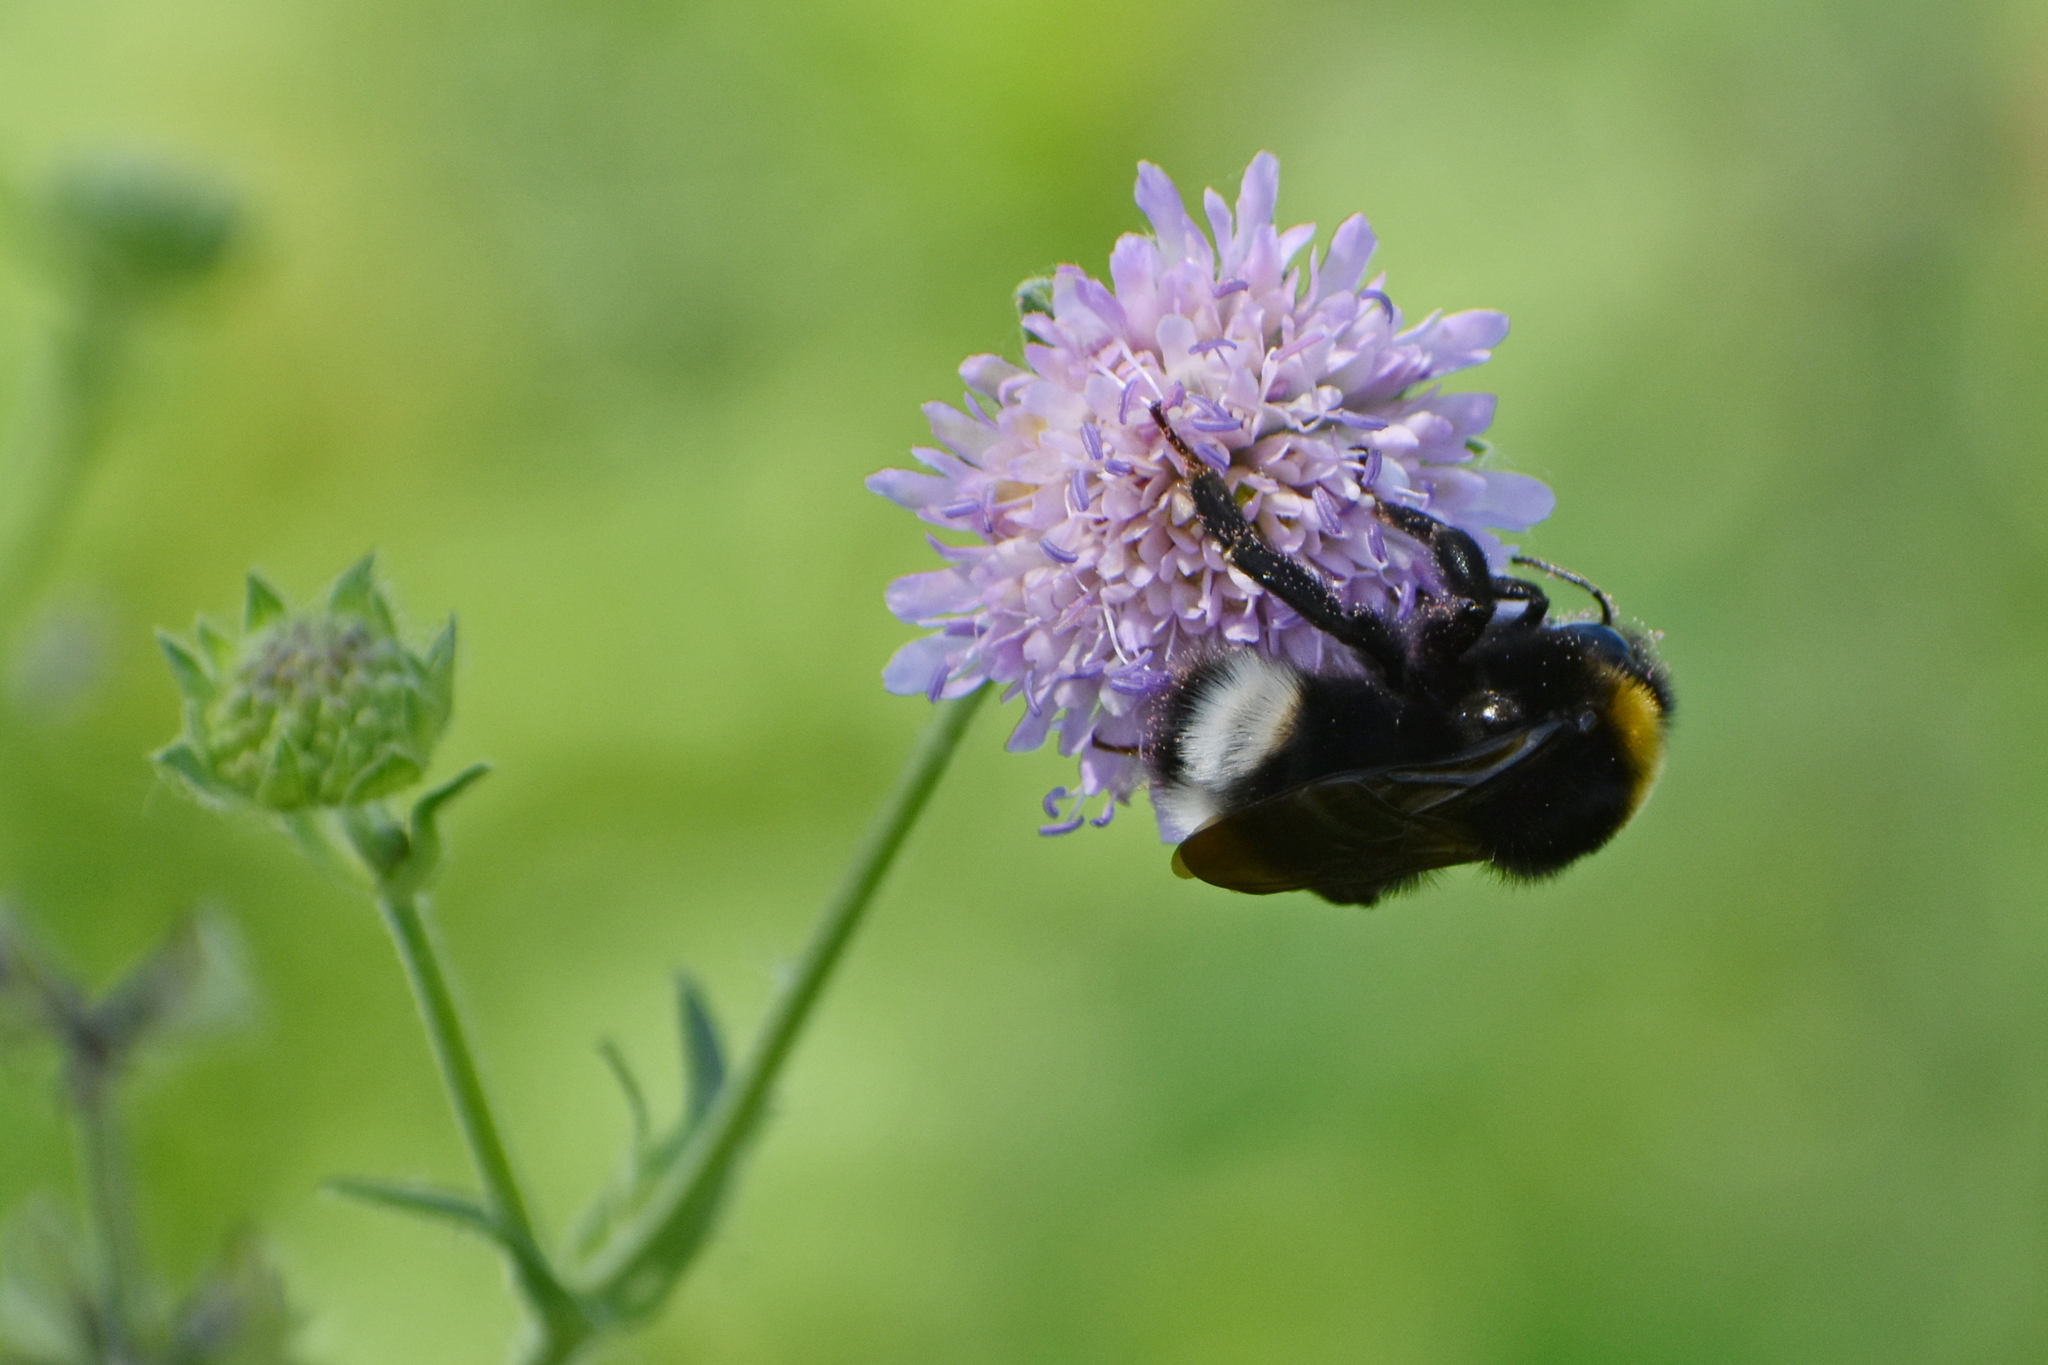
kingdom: Animalia
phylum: Arthropoda
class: Insecta
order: Hymenoptera
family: Apidae
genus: Bombus
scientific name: Bombus sylvestris
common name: Forest cuckoo bee
